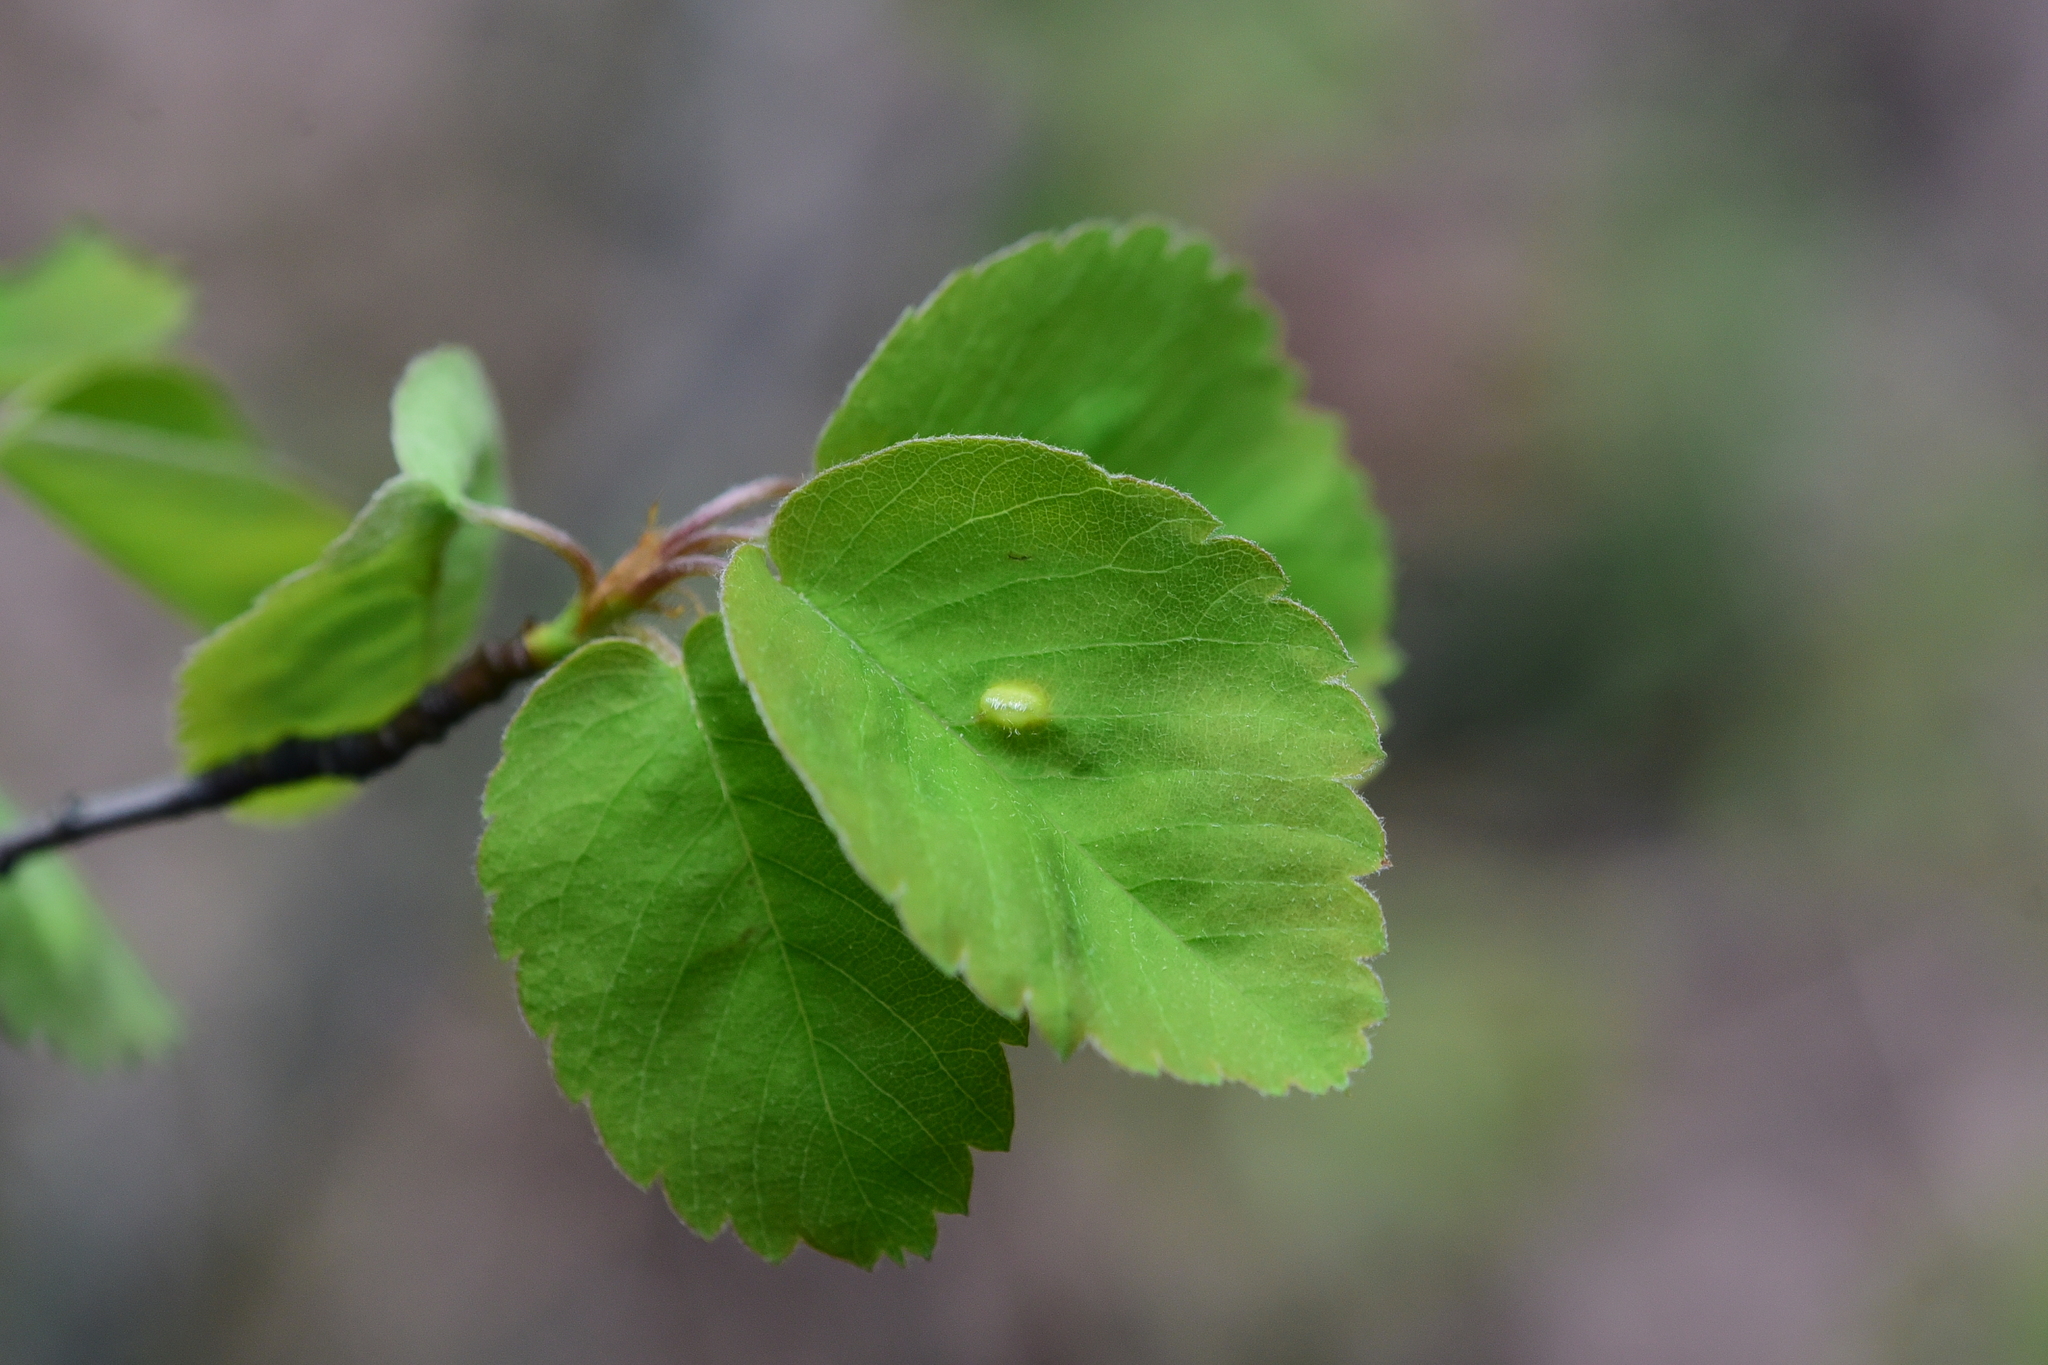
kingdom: Plantae
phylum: Tracheophyta
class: Magnoliopsida
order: Rosales
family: Rosaceae
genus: Amelanchier
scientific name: Amelanchier alnifolia
